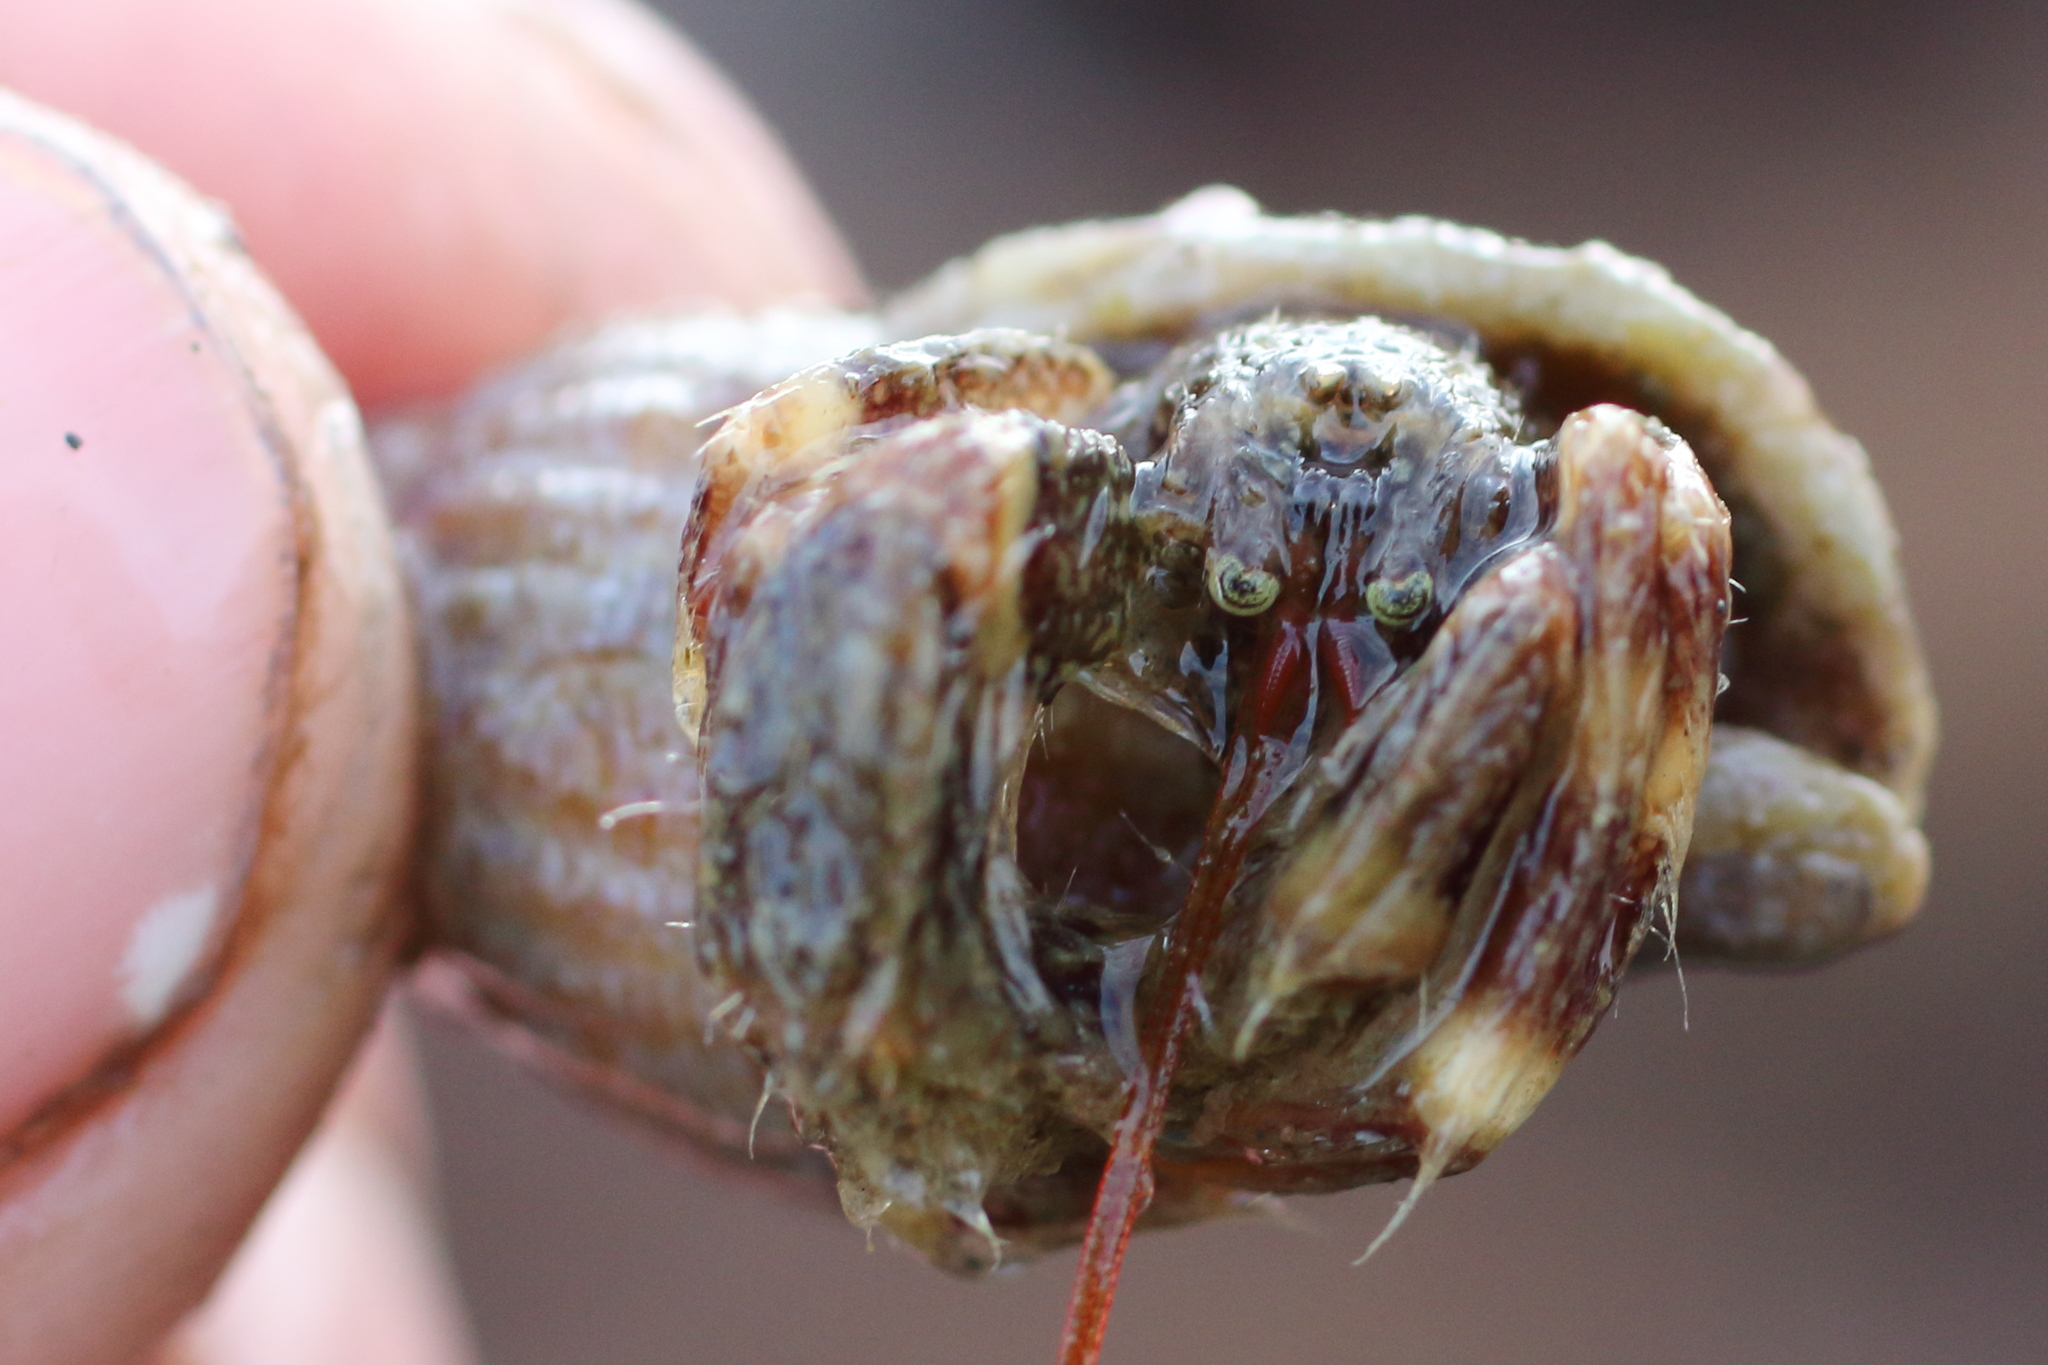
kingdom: Animalia
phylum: Arthropoda
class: Malacostraca
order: Decapoda
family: Paguridae
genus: Pagurus
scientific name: Pagurus caurinus
